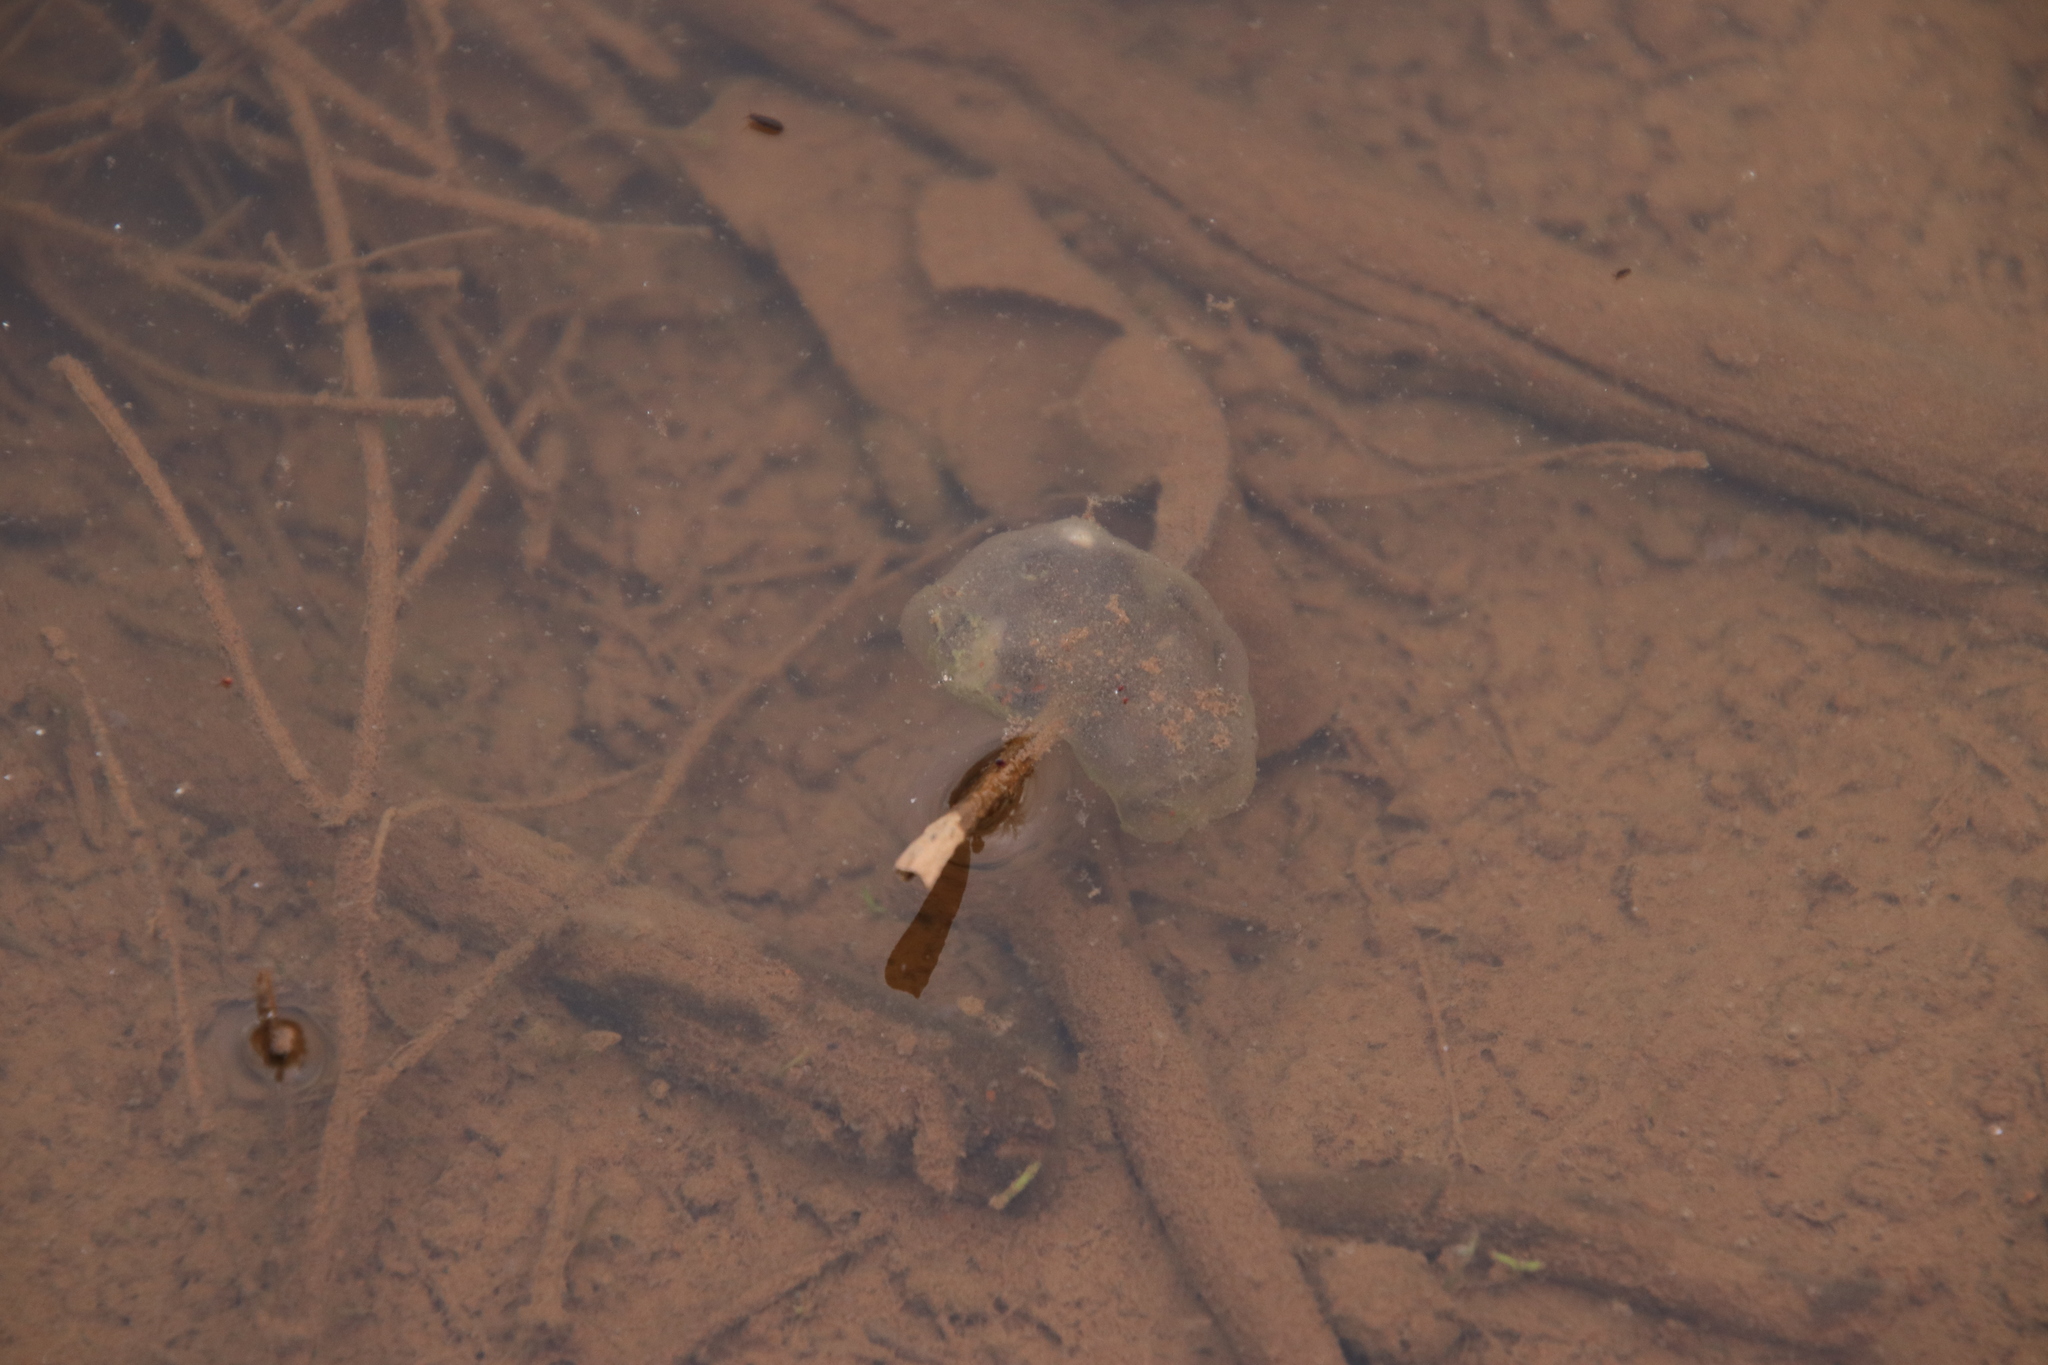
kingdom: Animalia
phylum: Chordata
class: Amphibia
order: Anura
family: Hylidae
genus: Pseudacris
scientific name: Pseudacris regilla
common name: Pacific chorus frog
